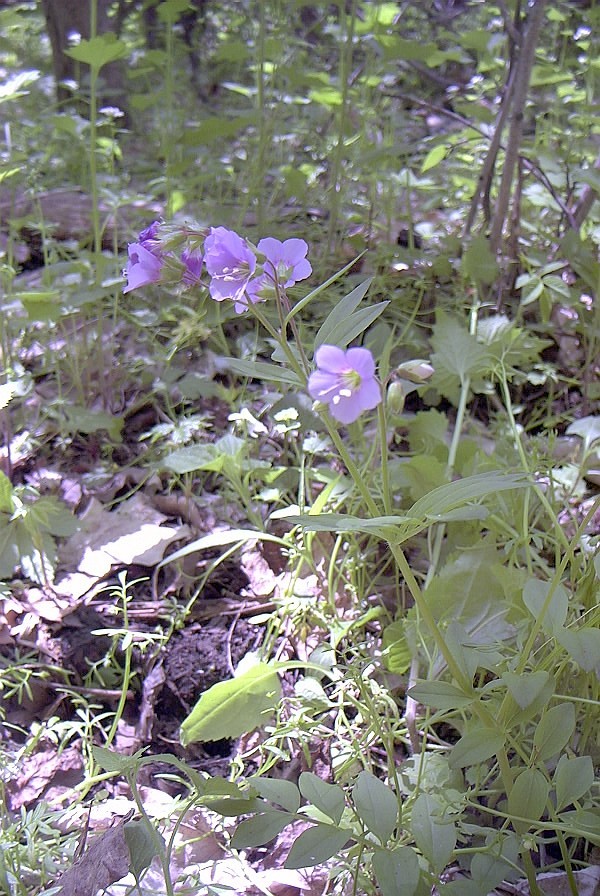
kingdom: Plantae
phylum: Tracheophyta
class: Magnoliopsida
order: Ericales
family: Polemoniaceae
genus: Polemonium
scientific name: Polemonium reptans
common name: Creeping jacob's-ladder
